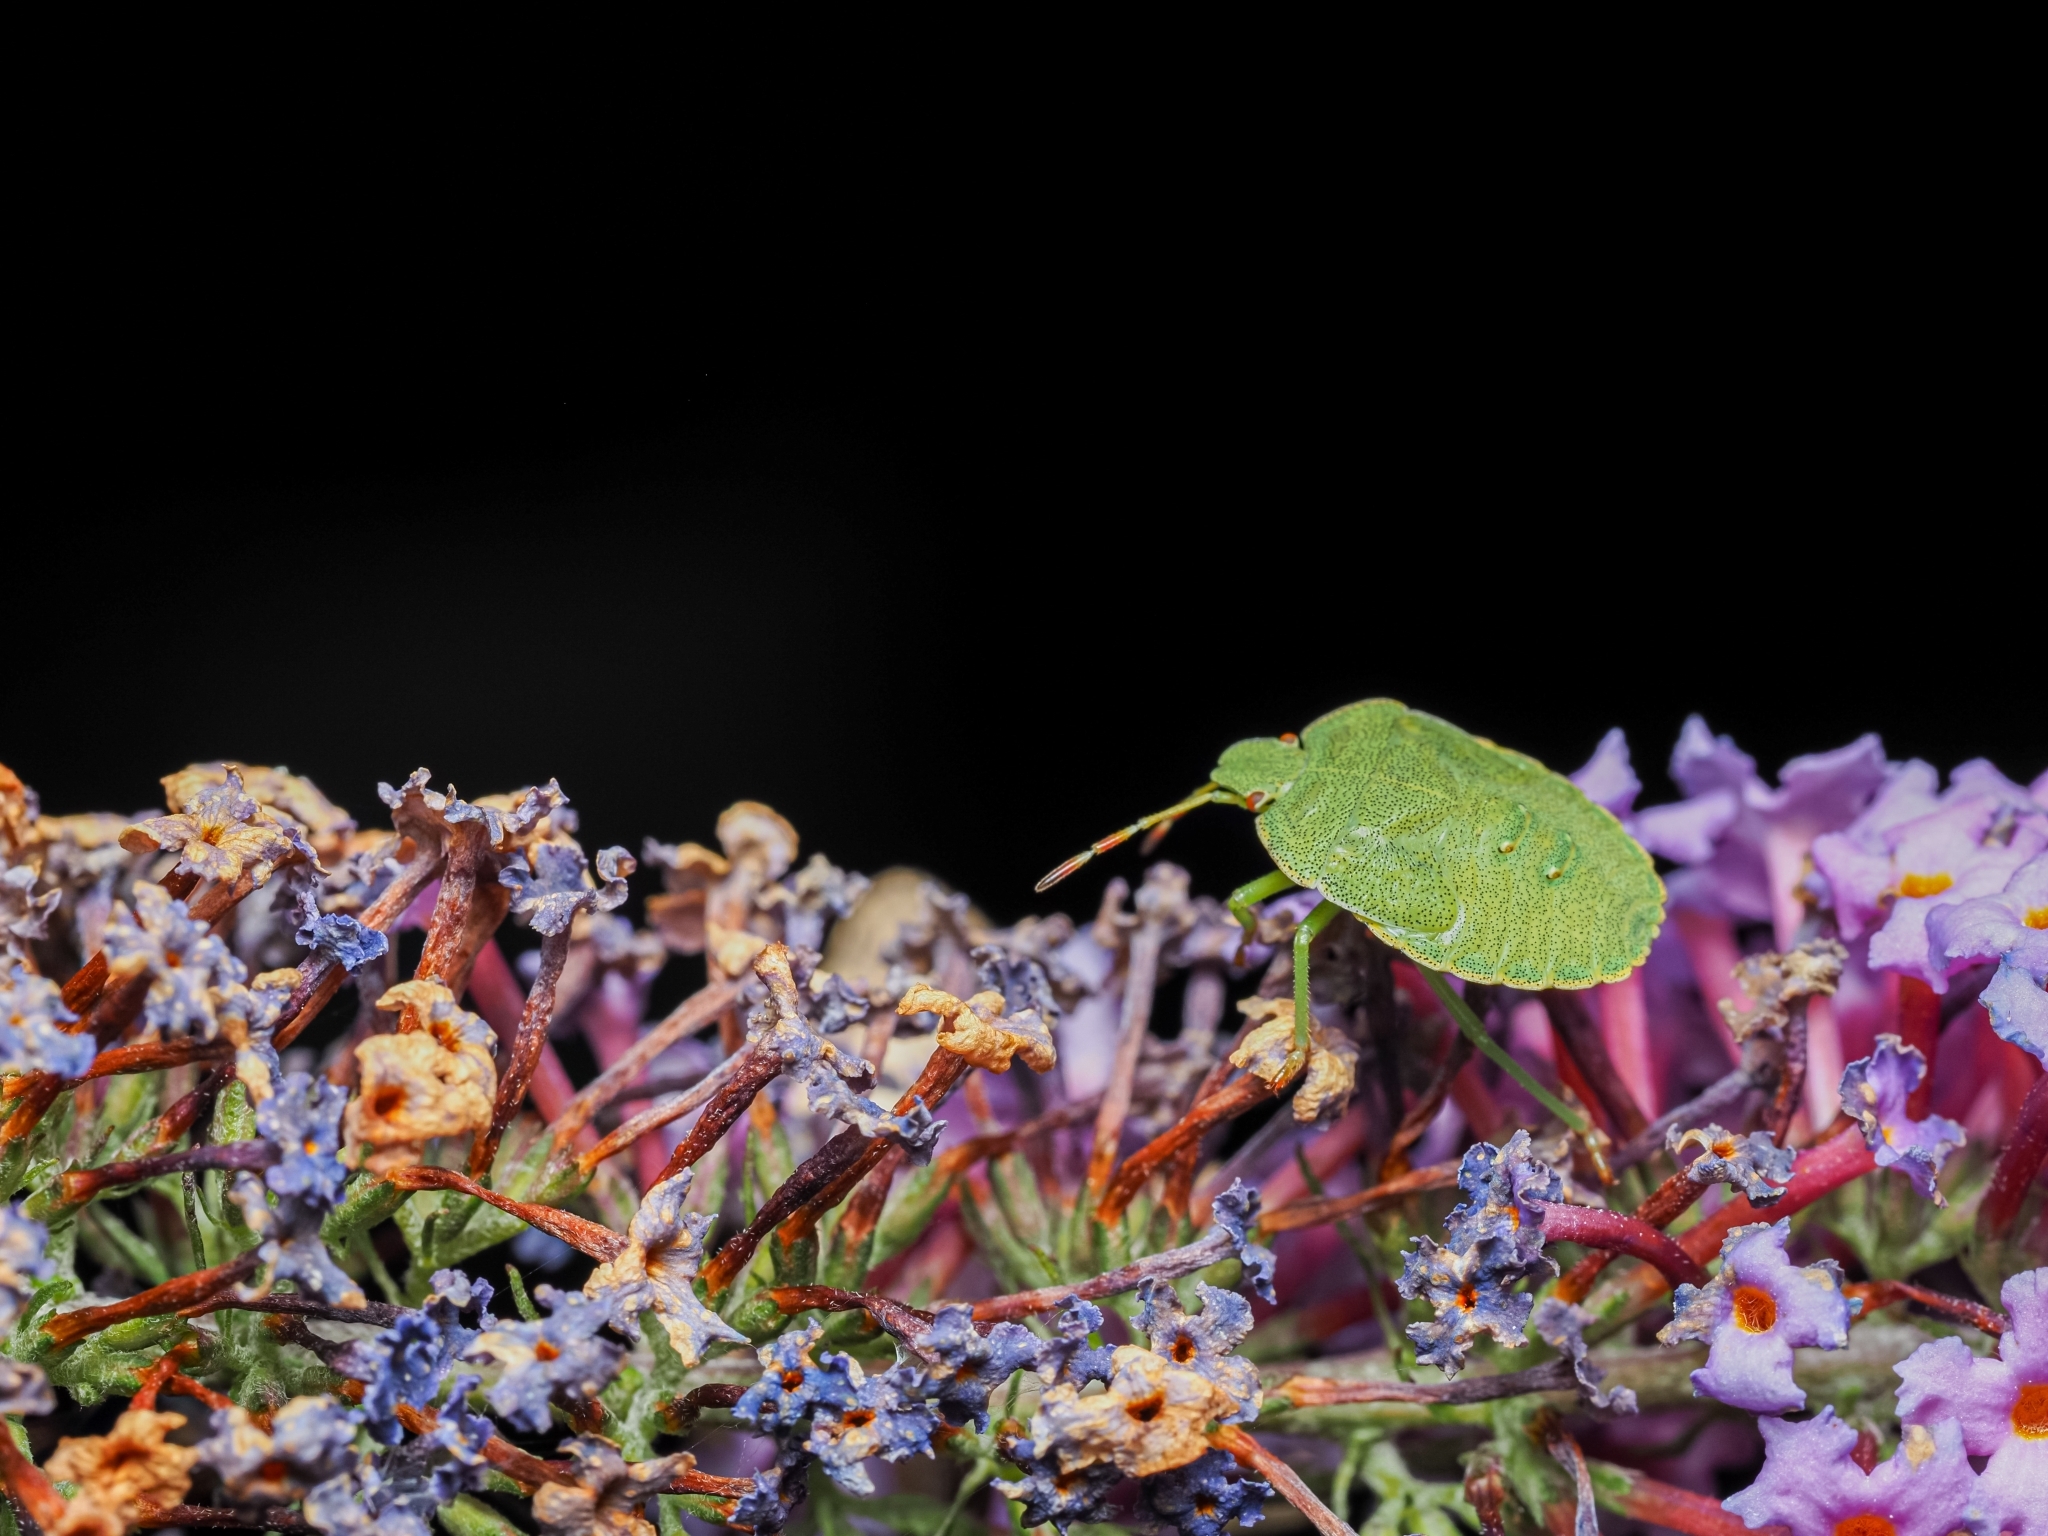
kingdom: Animalia
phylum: Arthropoda
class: Insecta
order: Hemiptera
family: Pentatomidae
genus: Palomena
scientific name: Palomena prasina
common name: Green shieldbug
